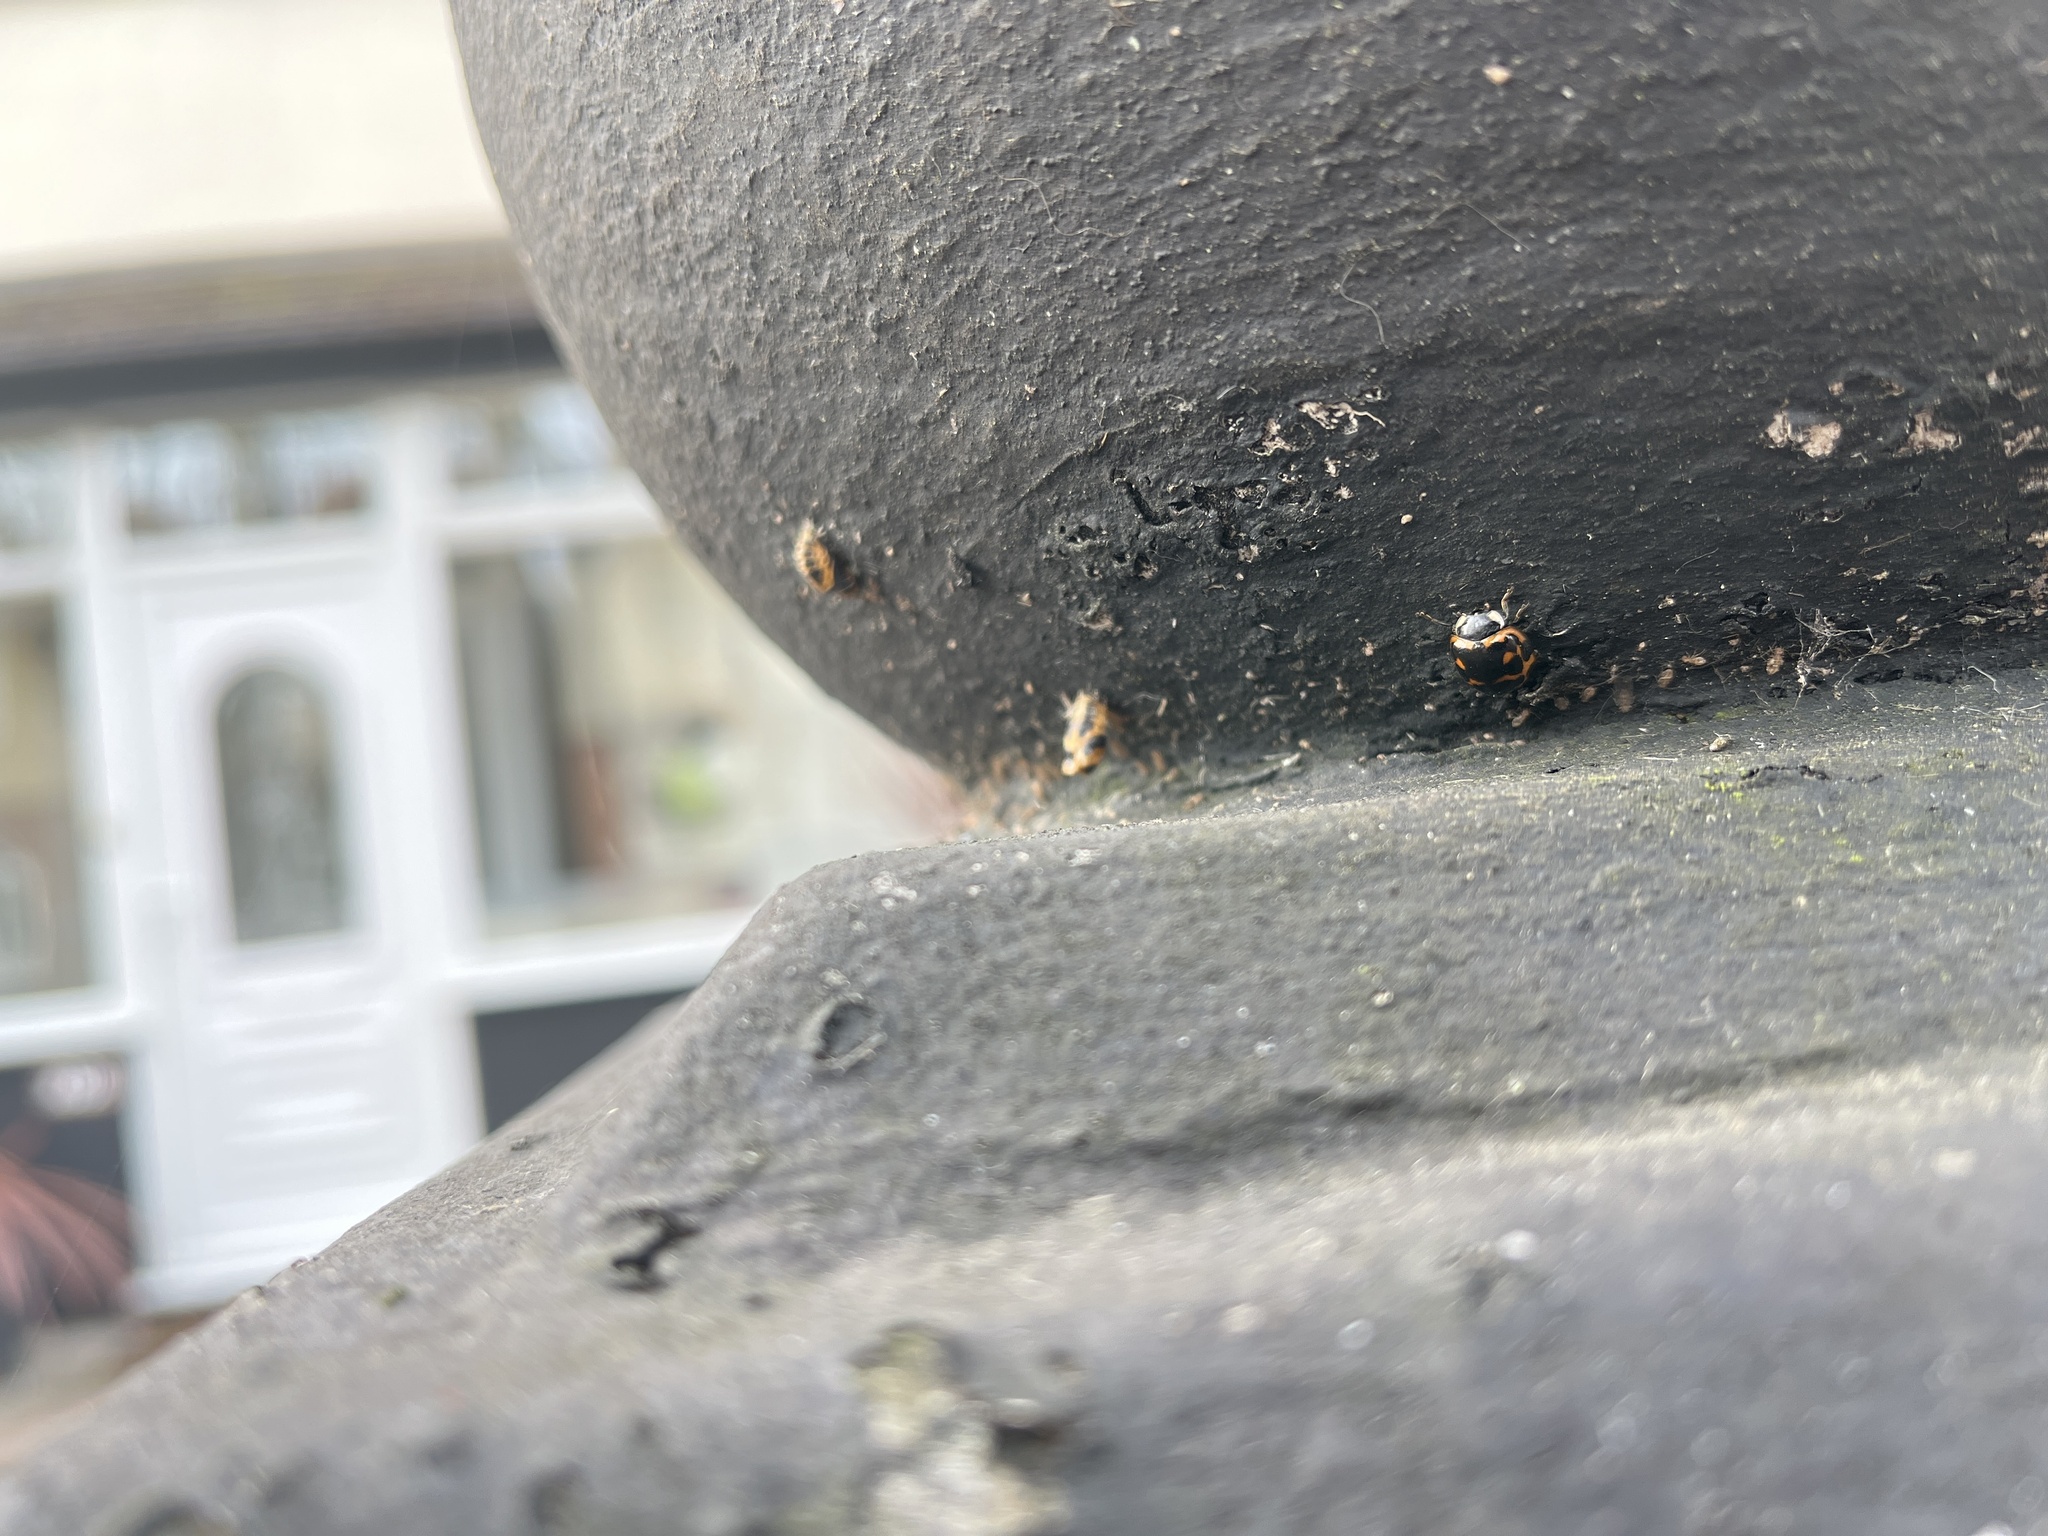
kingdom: Animalia
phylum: Arthropoda
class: Insecta
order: Coleoptera
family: Coccinellidae
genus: Harmonia
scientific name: Harmonia axyridis
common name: Harlequin ladybird
